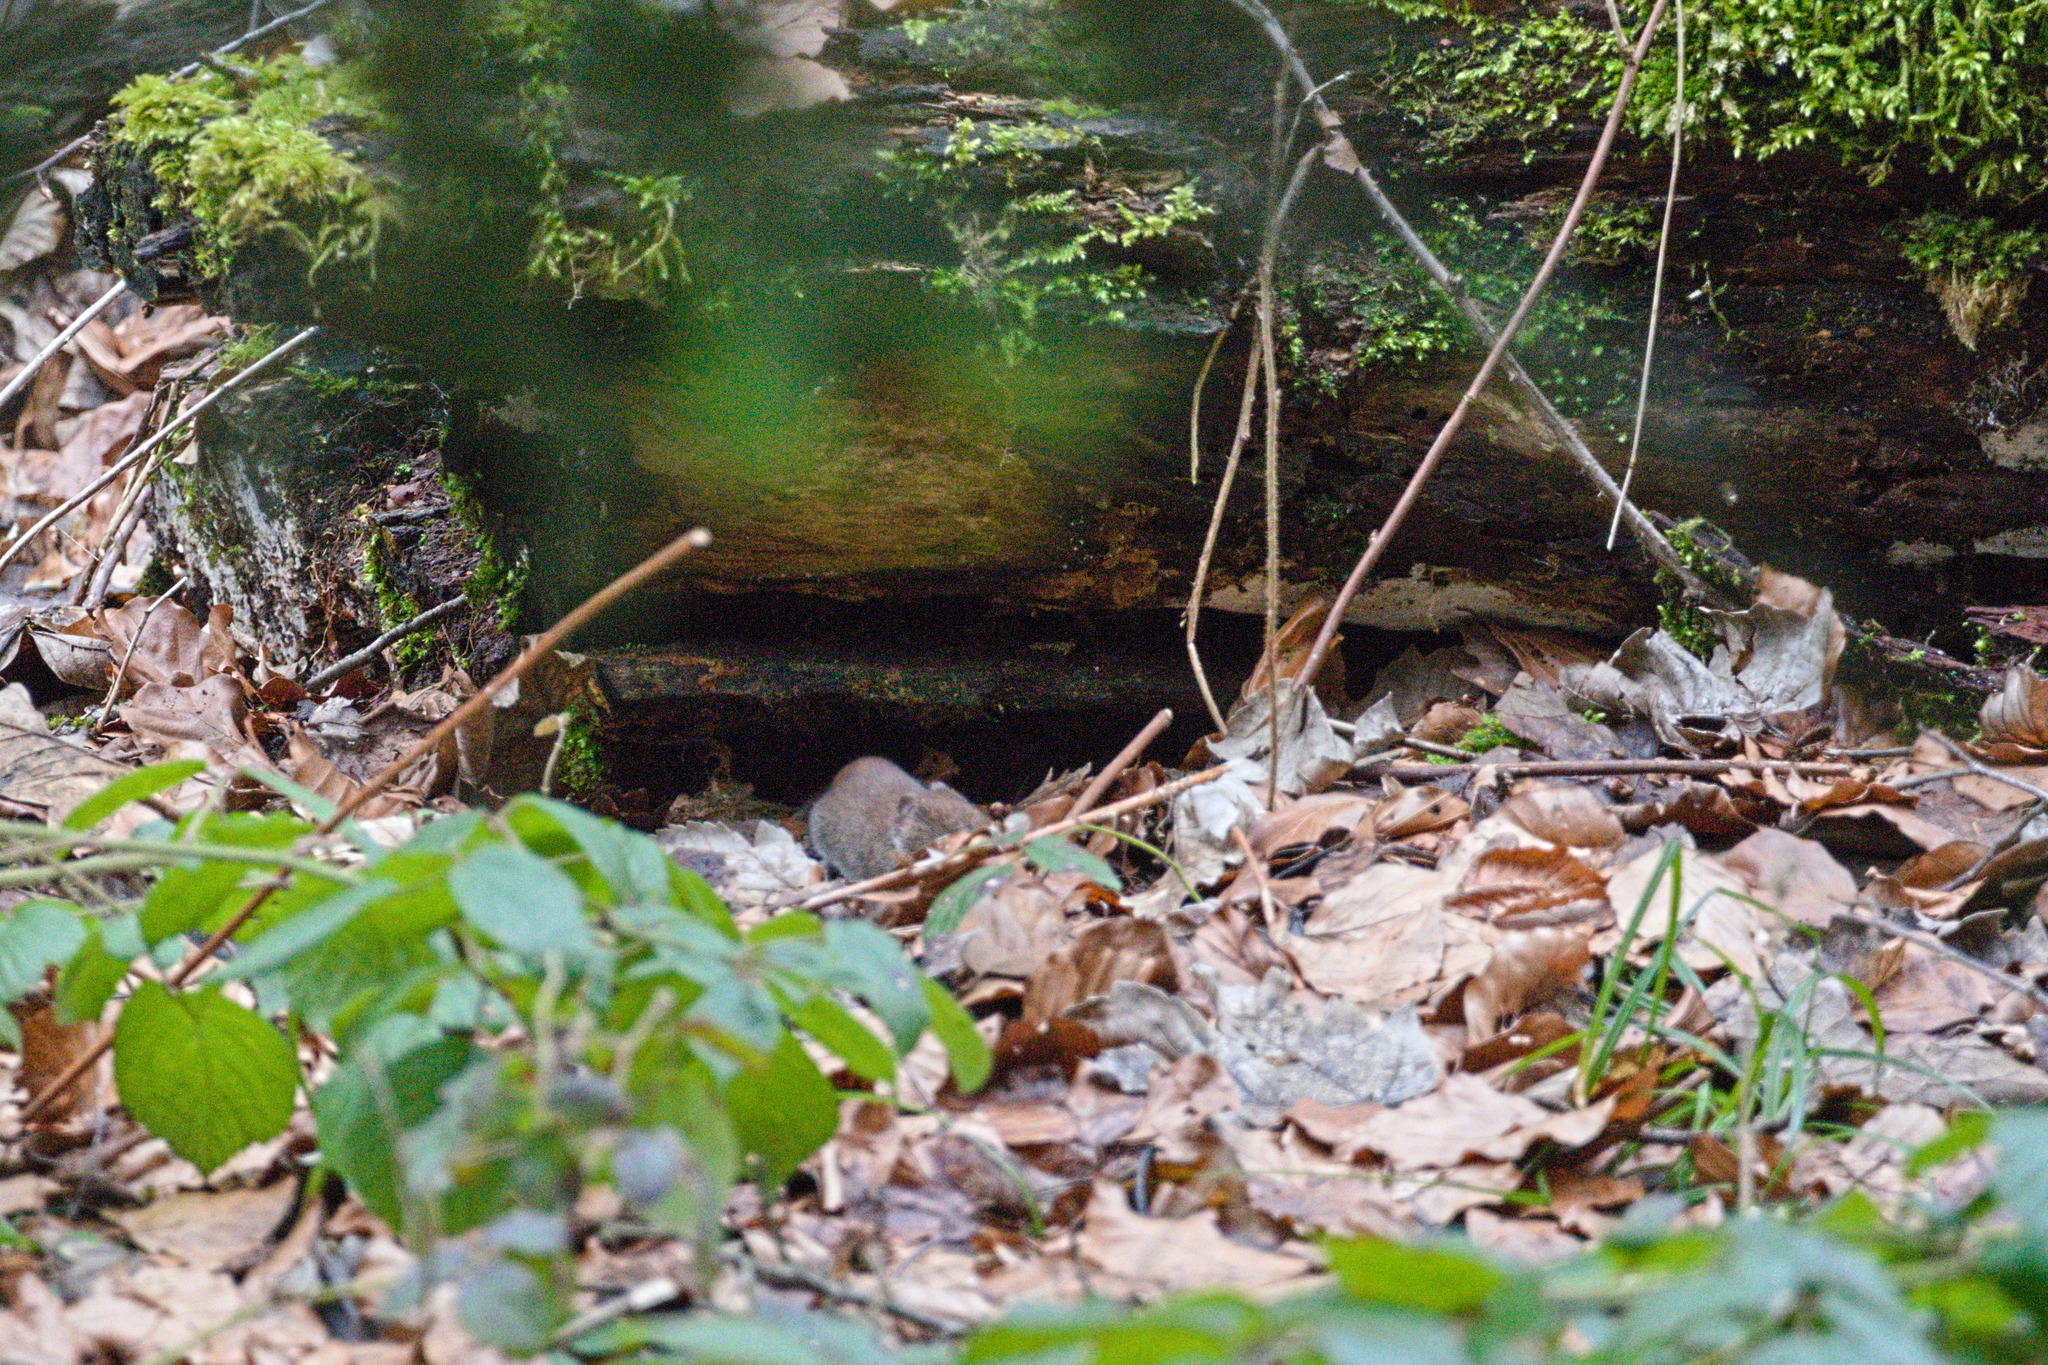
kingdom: Animalia
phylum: Chordata
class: Mammalia
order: Rodentia
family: Cricetidae
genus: Myodes
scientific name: Myodes glareolus
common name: Bank vole
